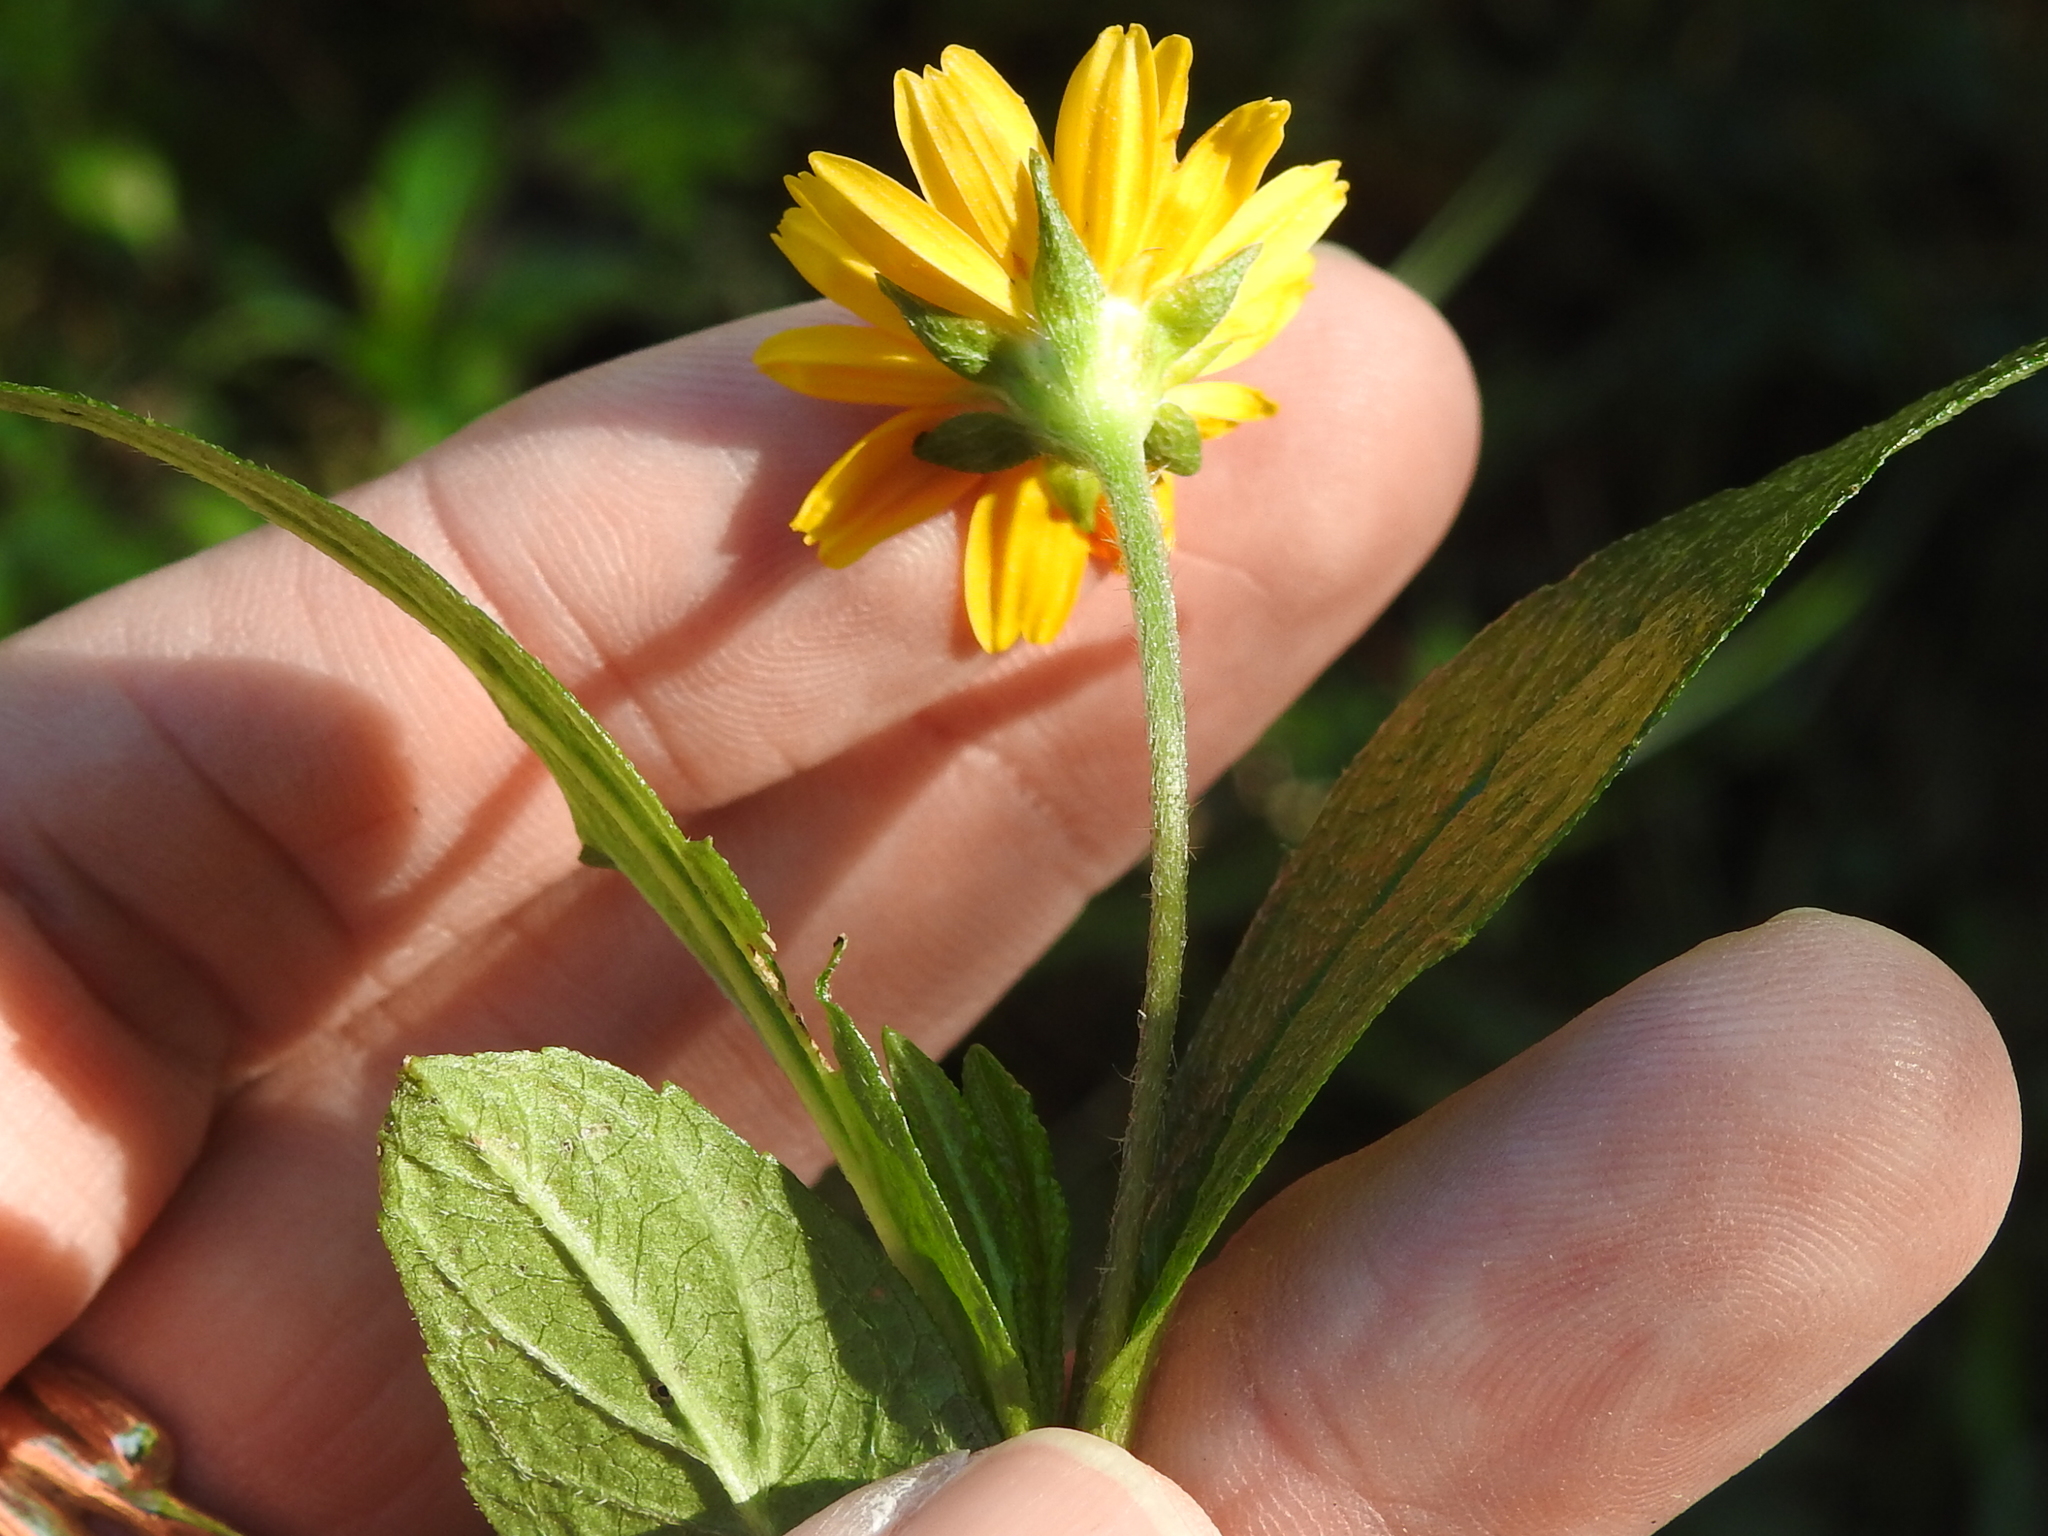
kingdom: Plantae
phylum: Tracheophyta
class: Magnoliopsida
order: Asterales
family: Asteraceae
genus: Sphagneticola
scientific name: Sphagneticola trilobata
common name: Bay biscayne creeping-oxeye
